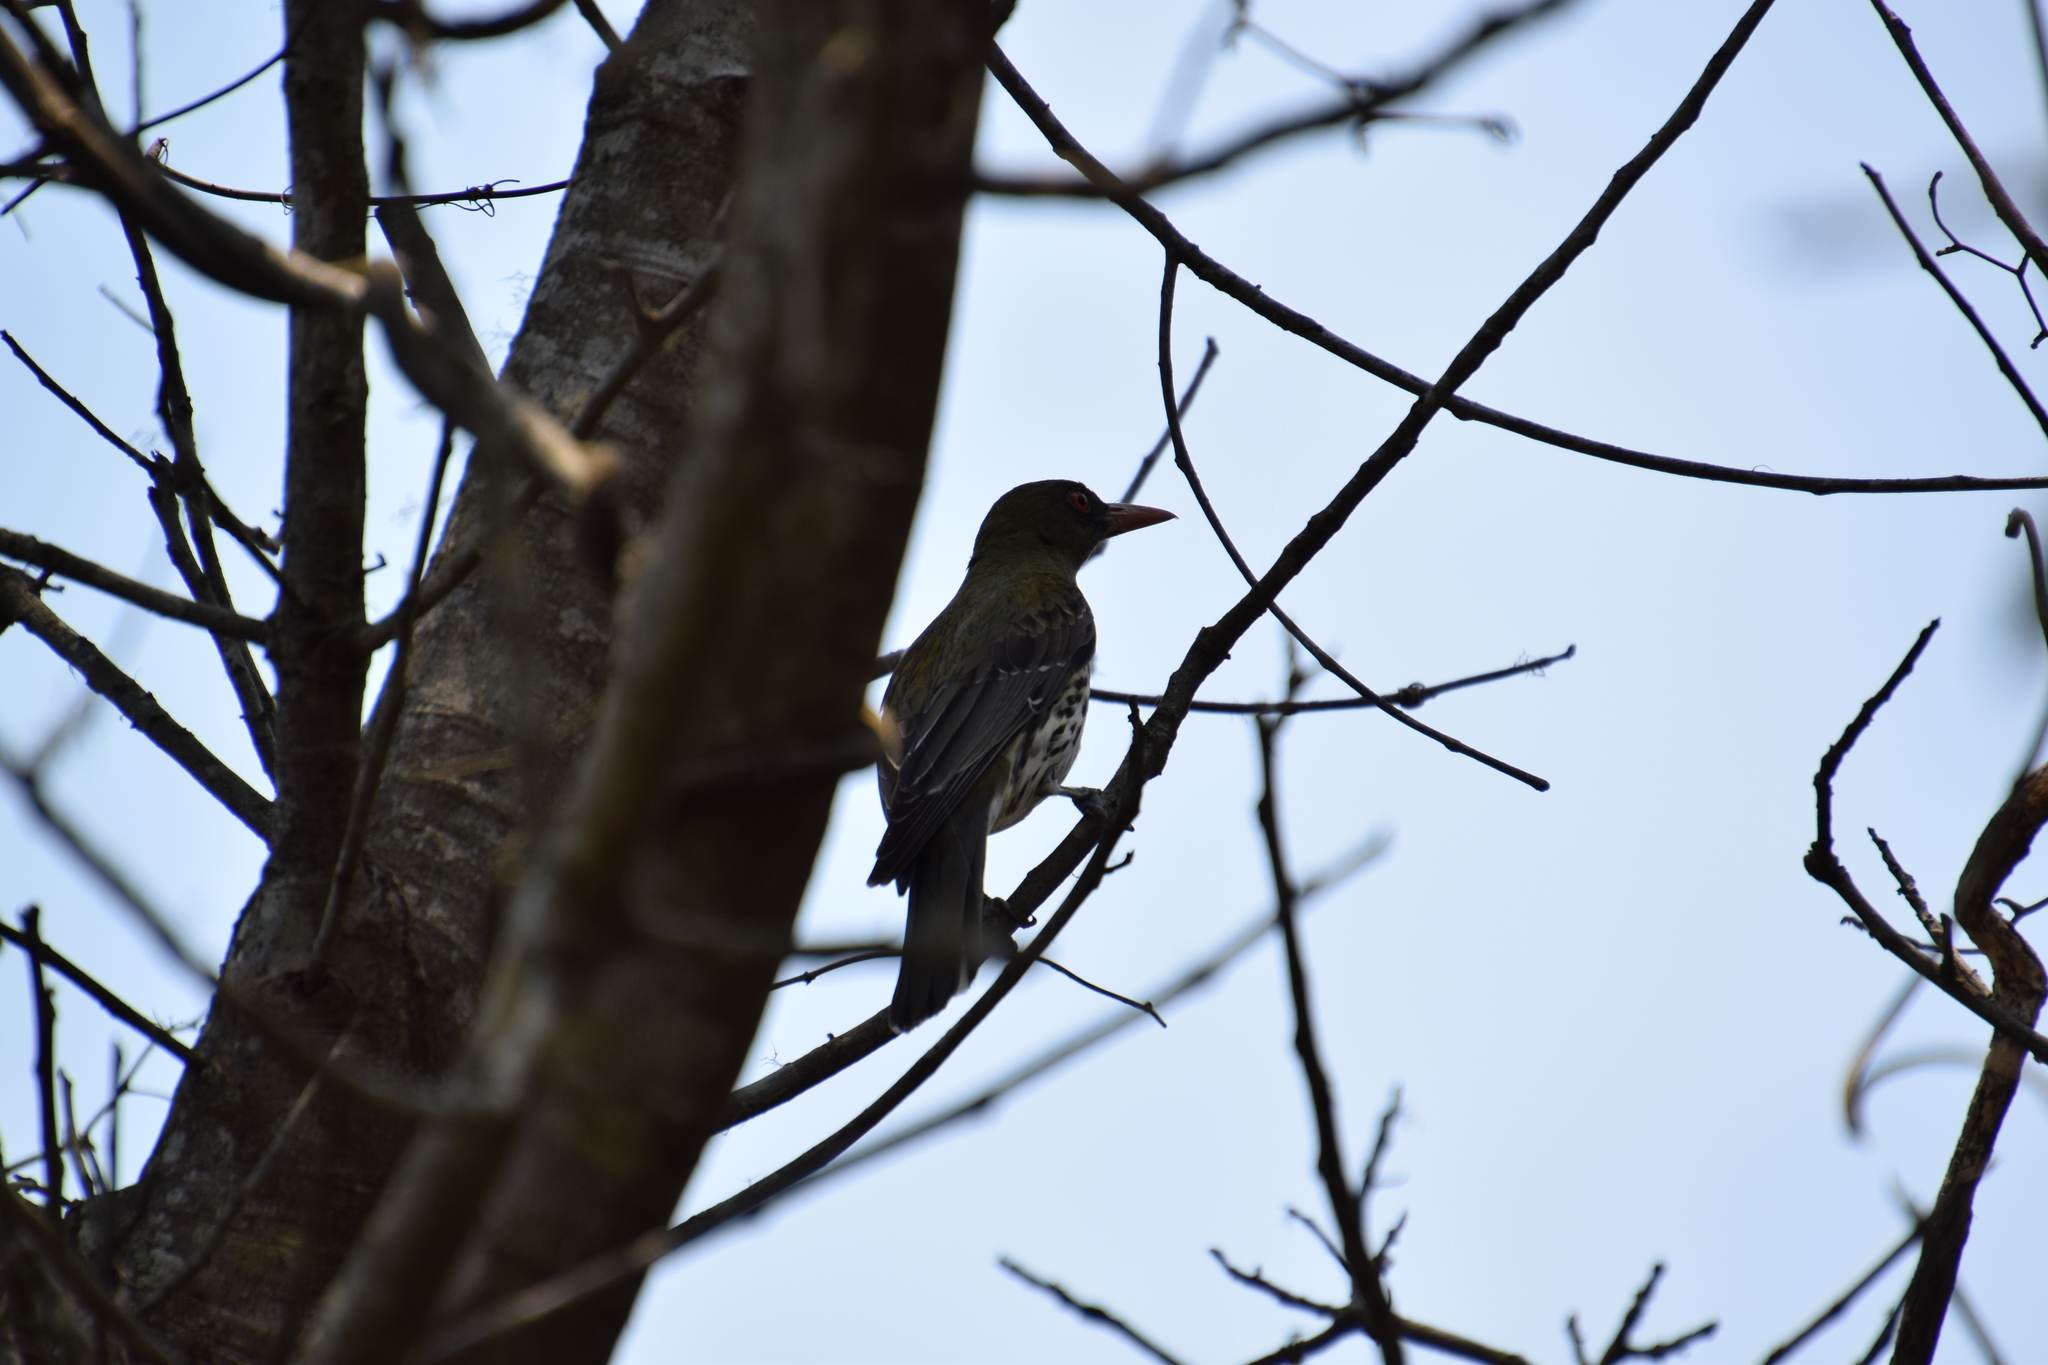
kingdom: Animalia
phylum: Chordata
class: Aves
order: Passeriformes
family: Oriolidae
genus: Oriolus
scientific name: Oriolus sagittatus
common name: Olive-backed oriole
